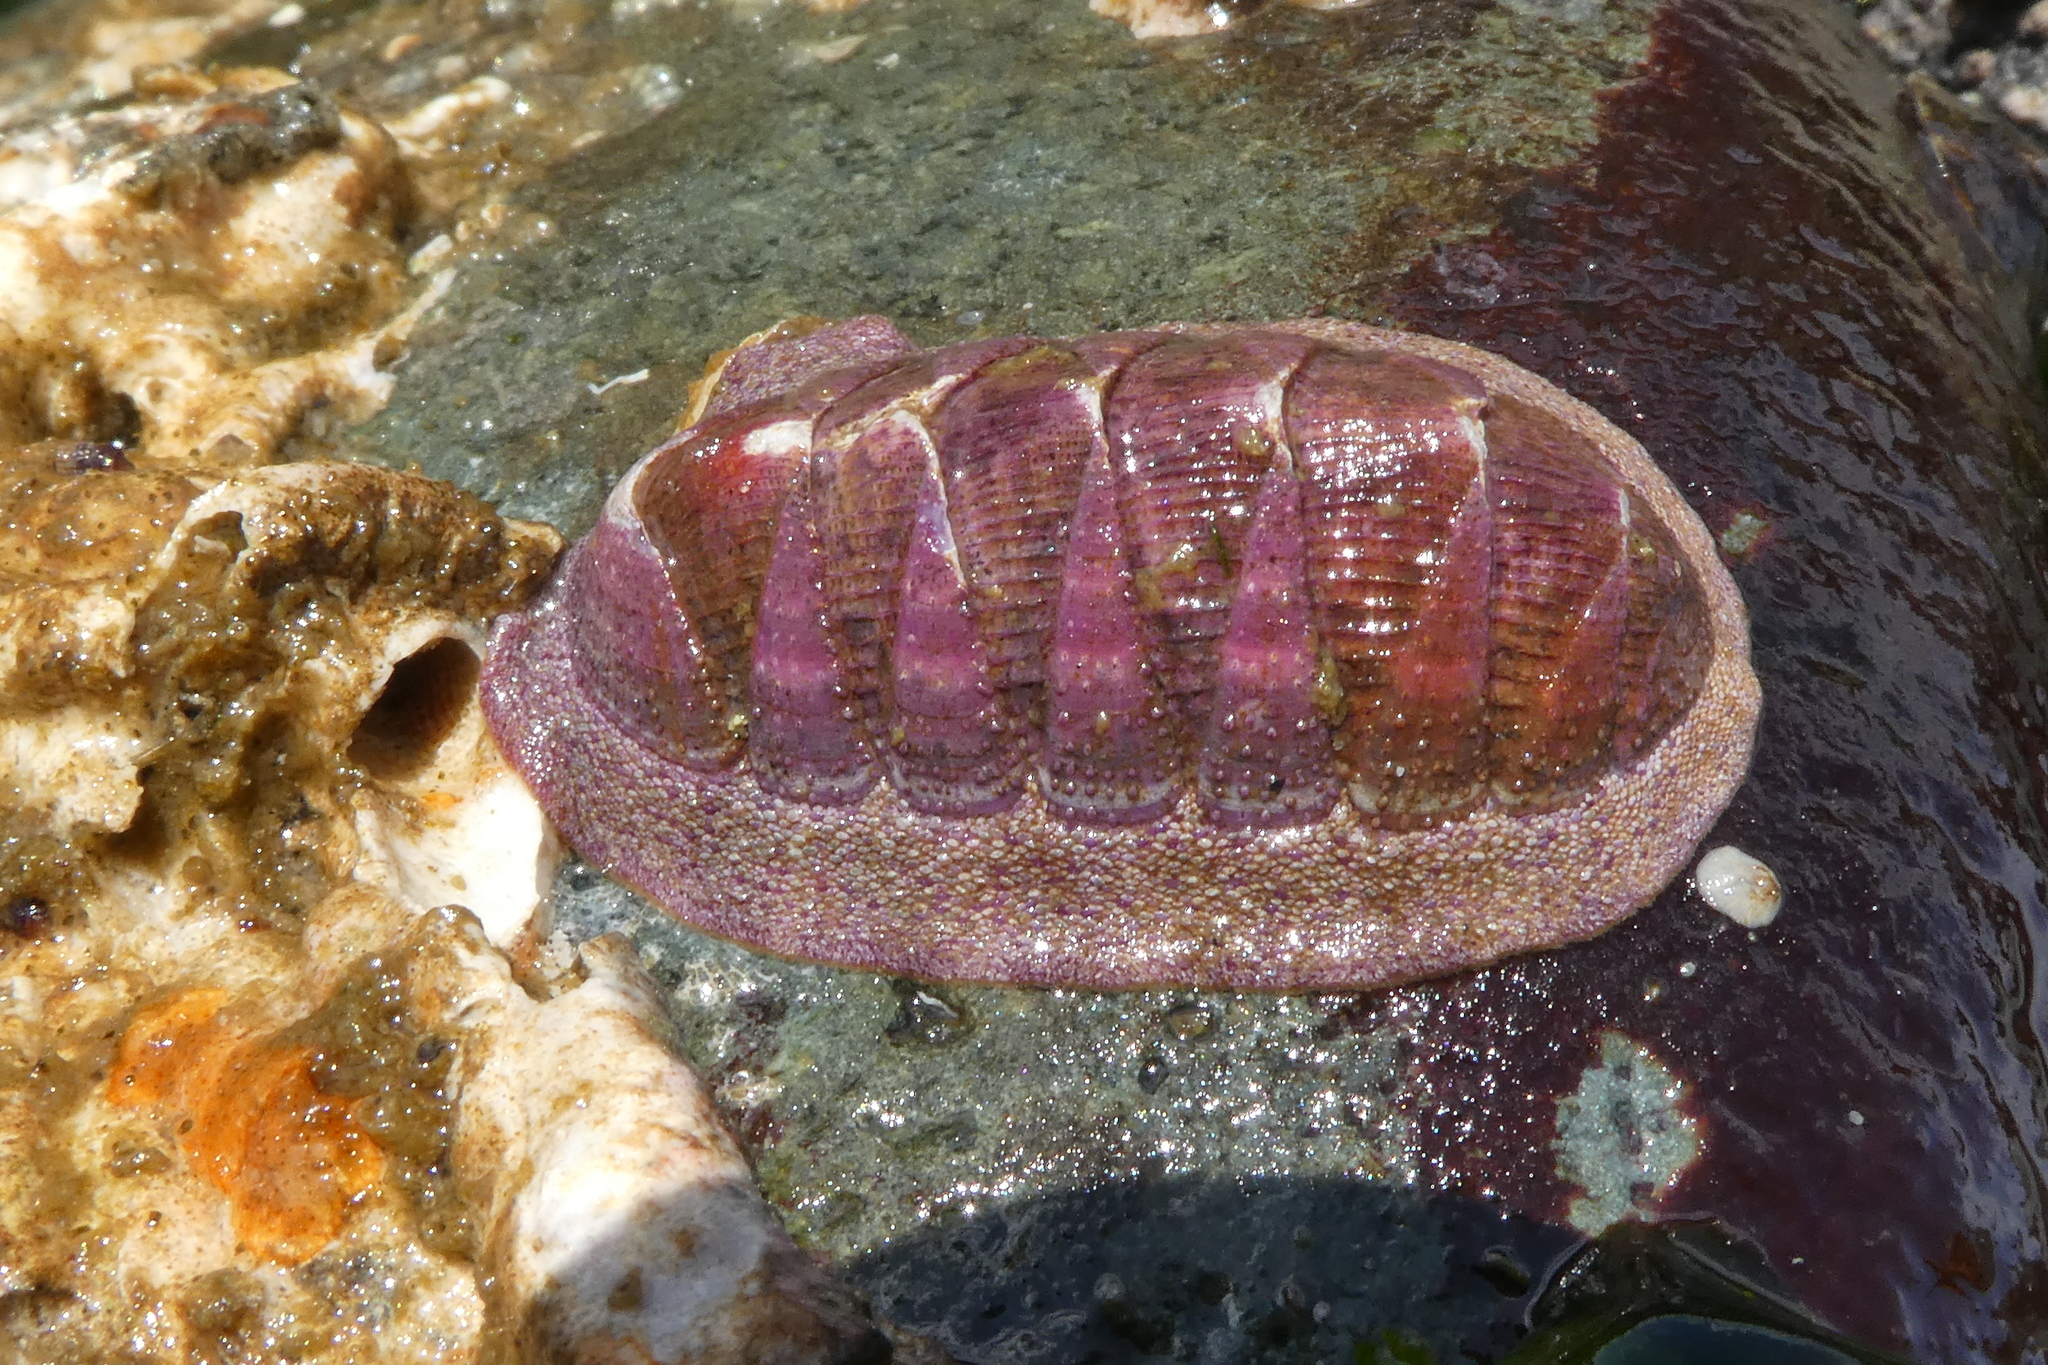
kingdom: Animalia
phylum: Mollusca
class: Polyplacophora
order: Chitonida
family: Ischnochitonidae
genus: Lepidozona
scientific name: Lepidozona mertensii
